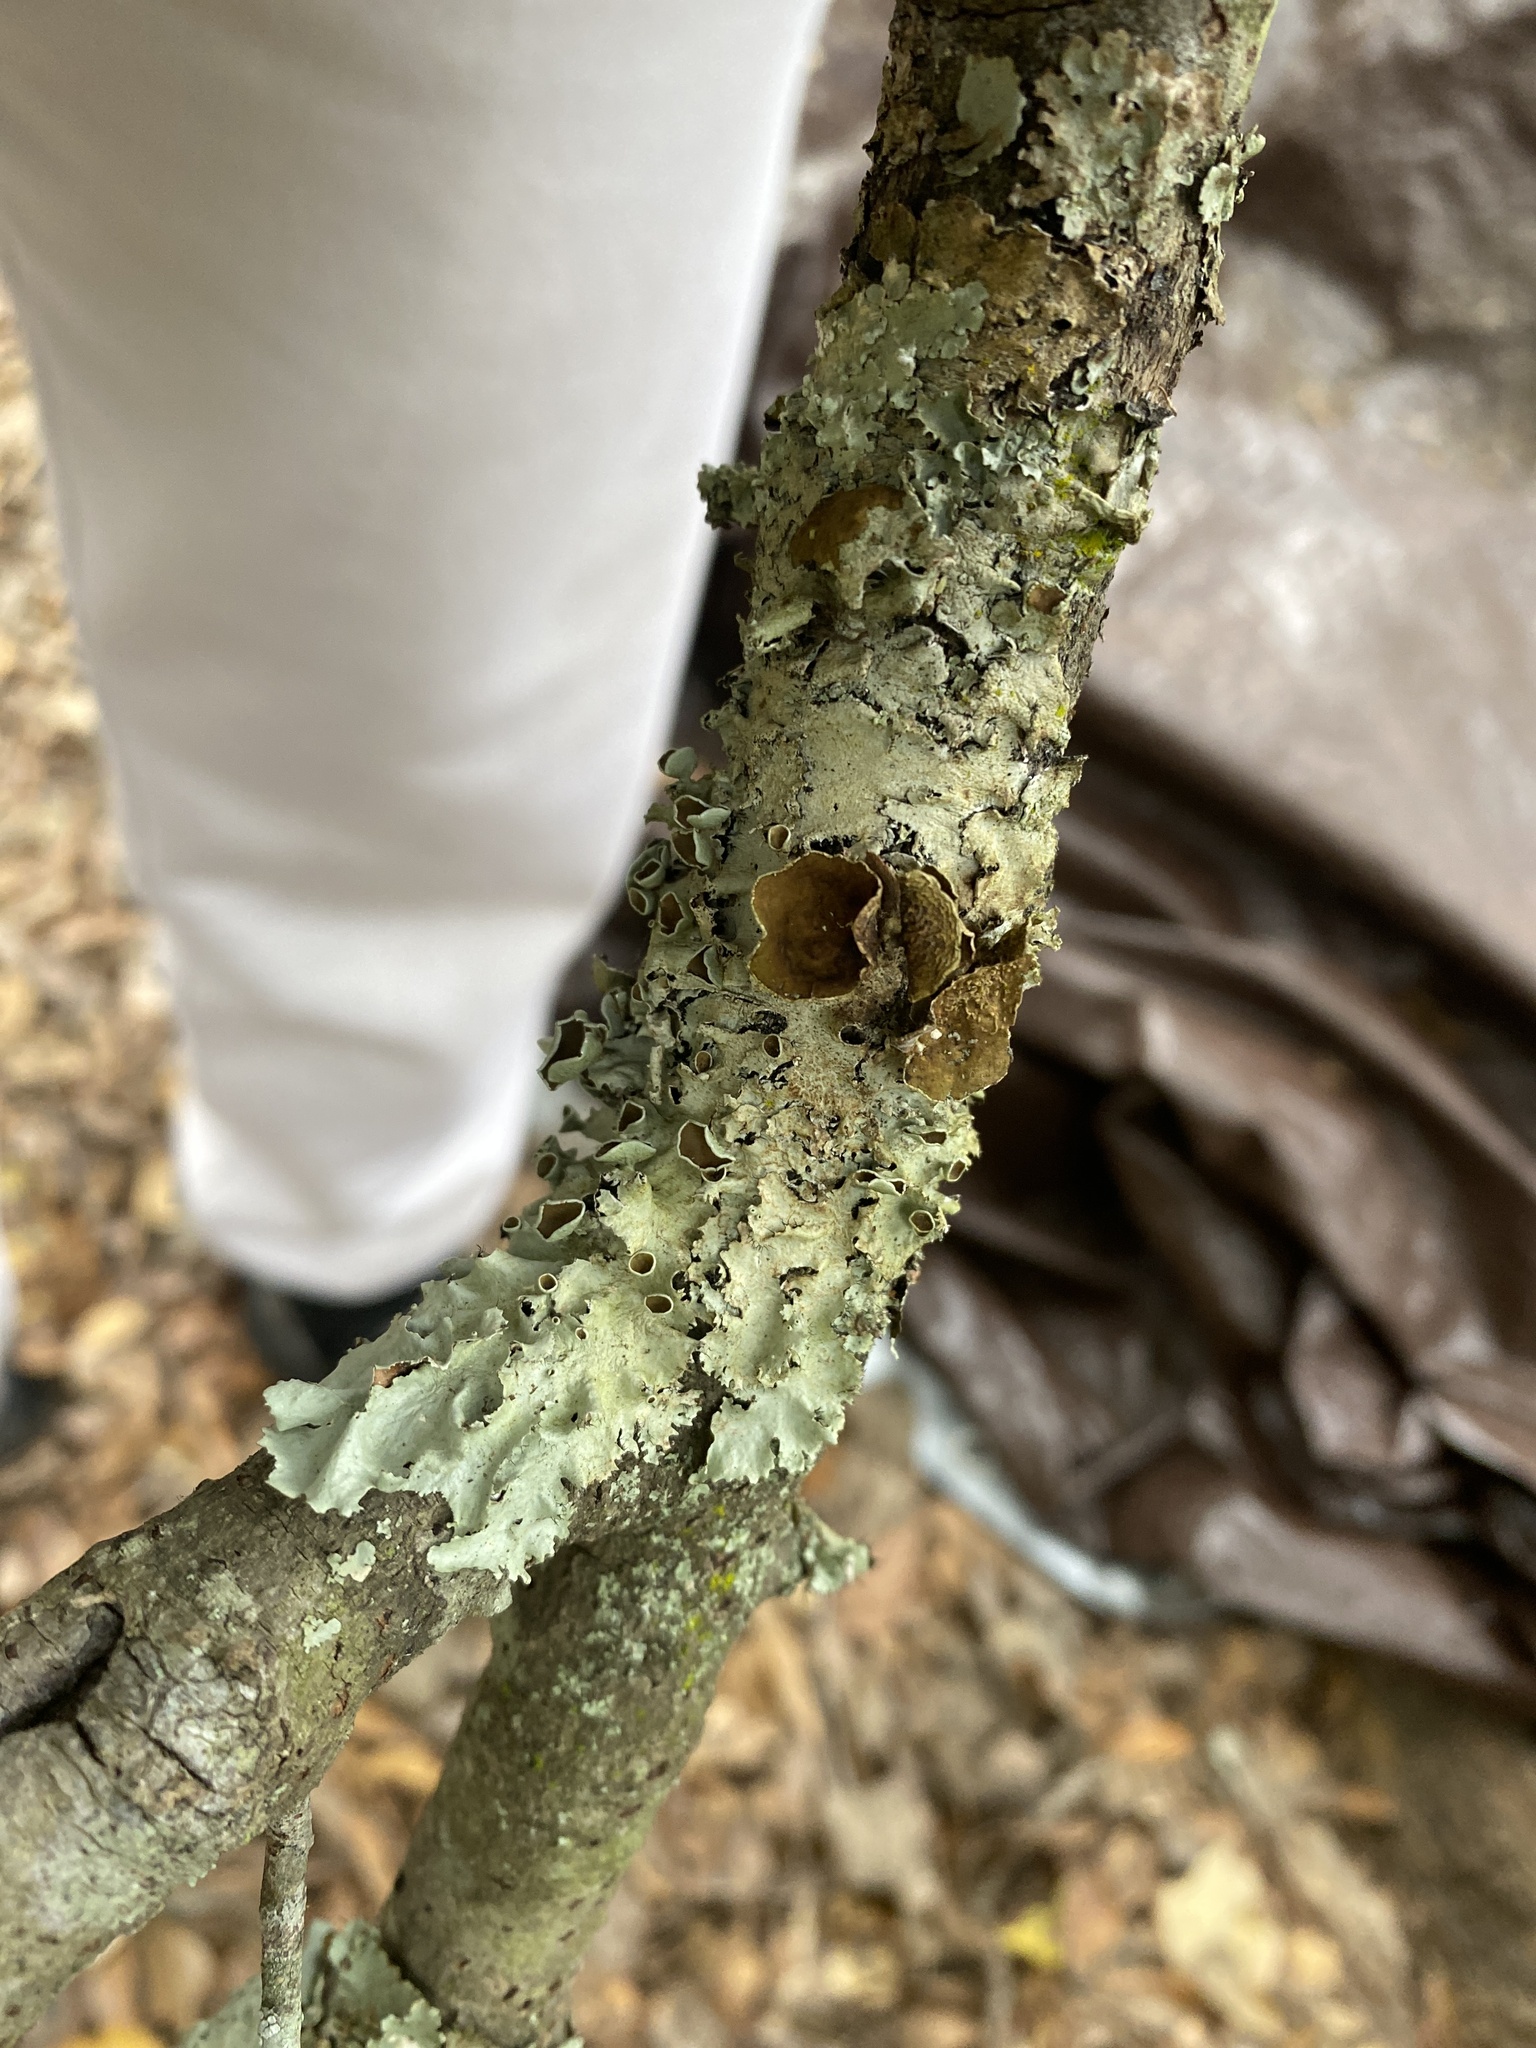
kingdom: Fungi
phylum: Ascomycota
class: Lecanoromycetes
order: Lecanorales
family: Parmeliaceae
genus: Parmotrema
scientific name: Parmotrema submarginale
